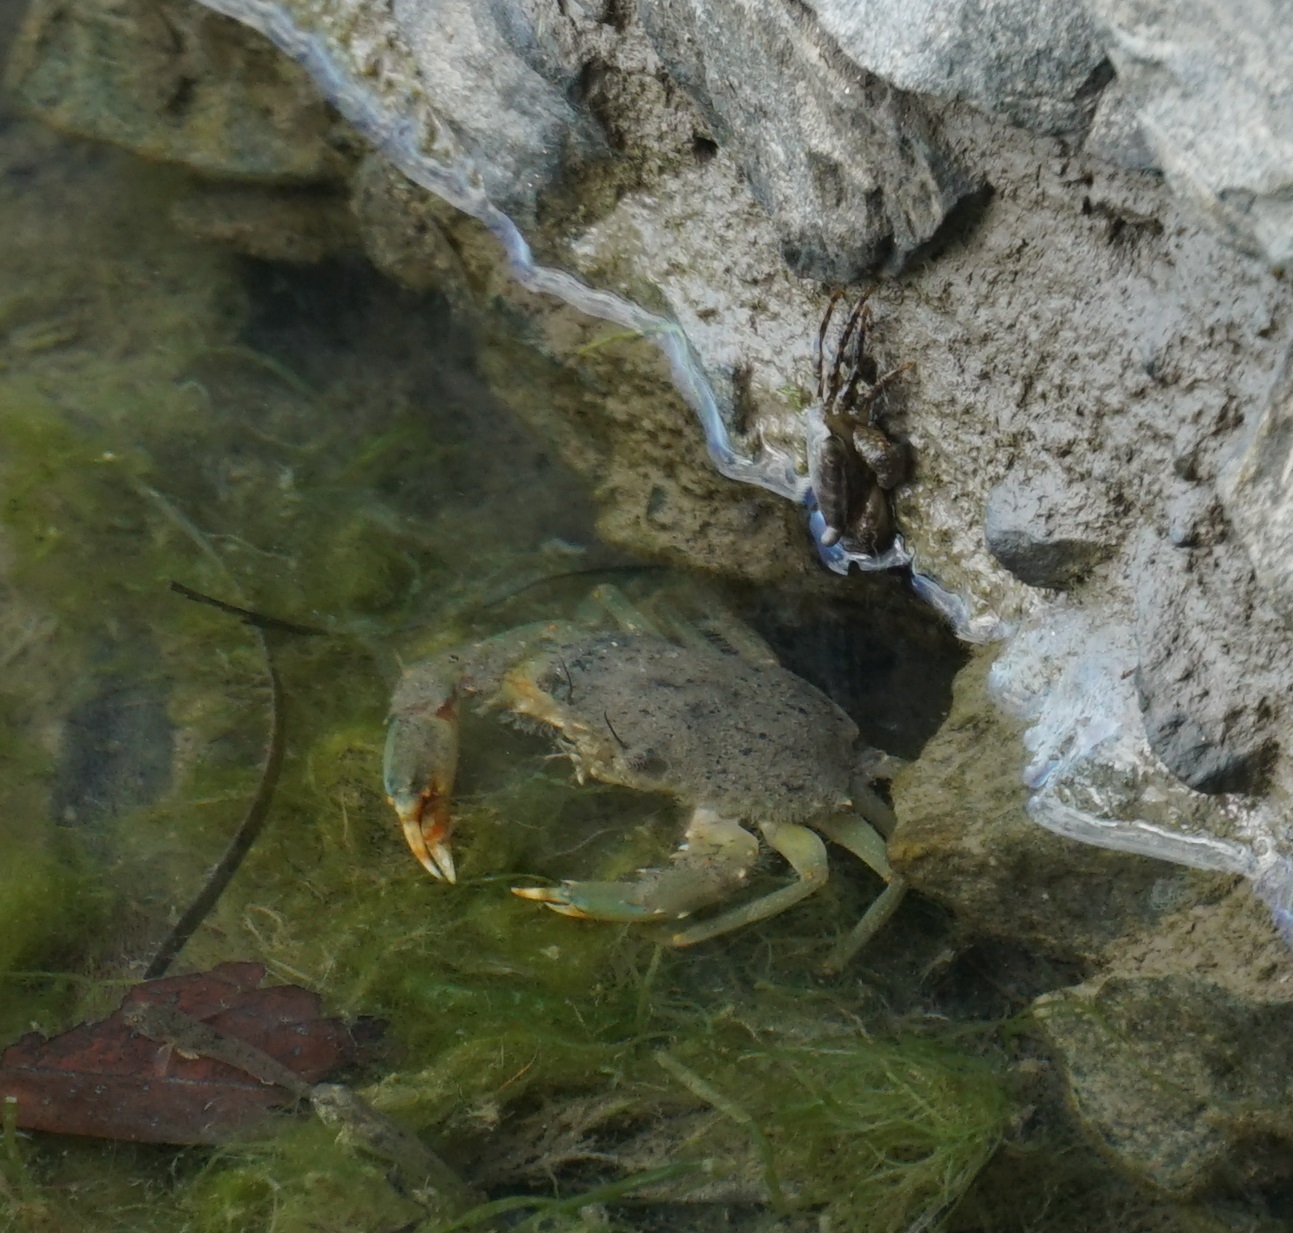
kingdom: Animalia
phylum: Arthropoda
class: Malacostraca
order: Decapoda
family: Portunidae
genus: Scylla
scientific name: Scylla serrata
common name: Giant mud crab
